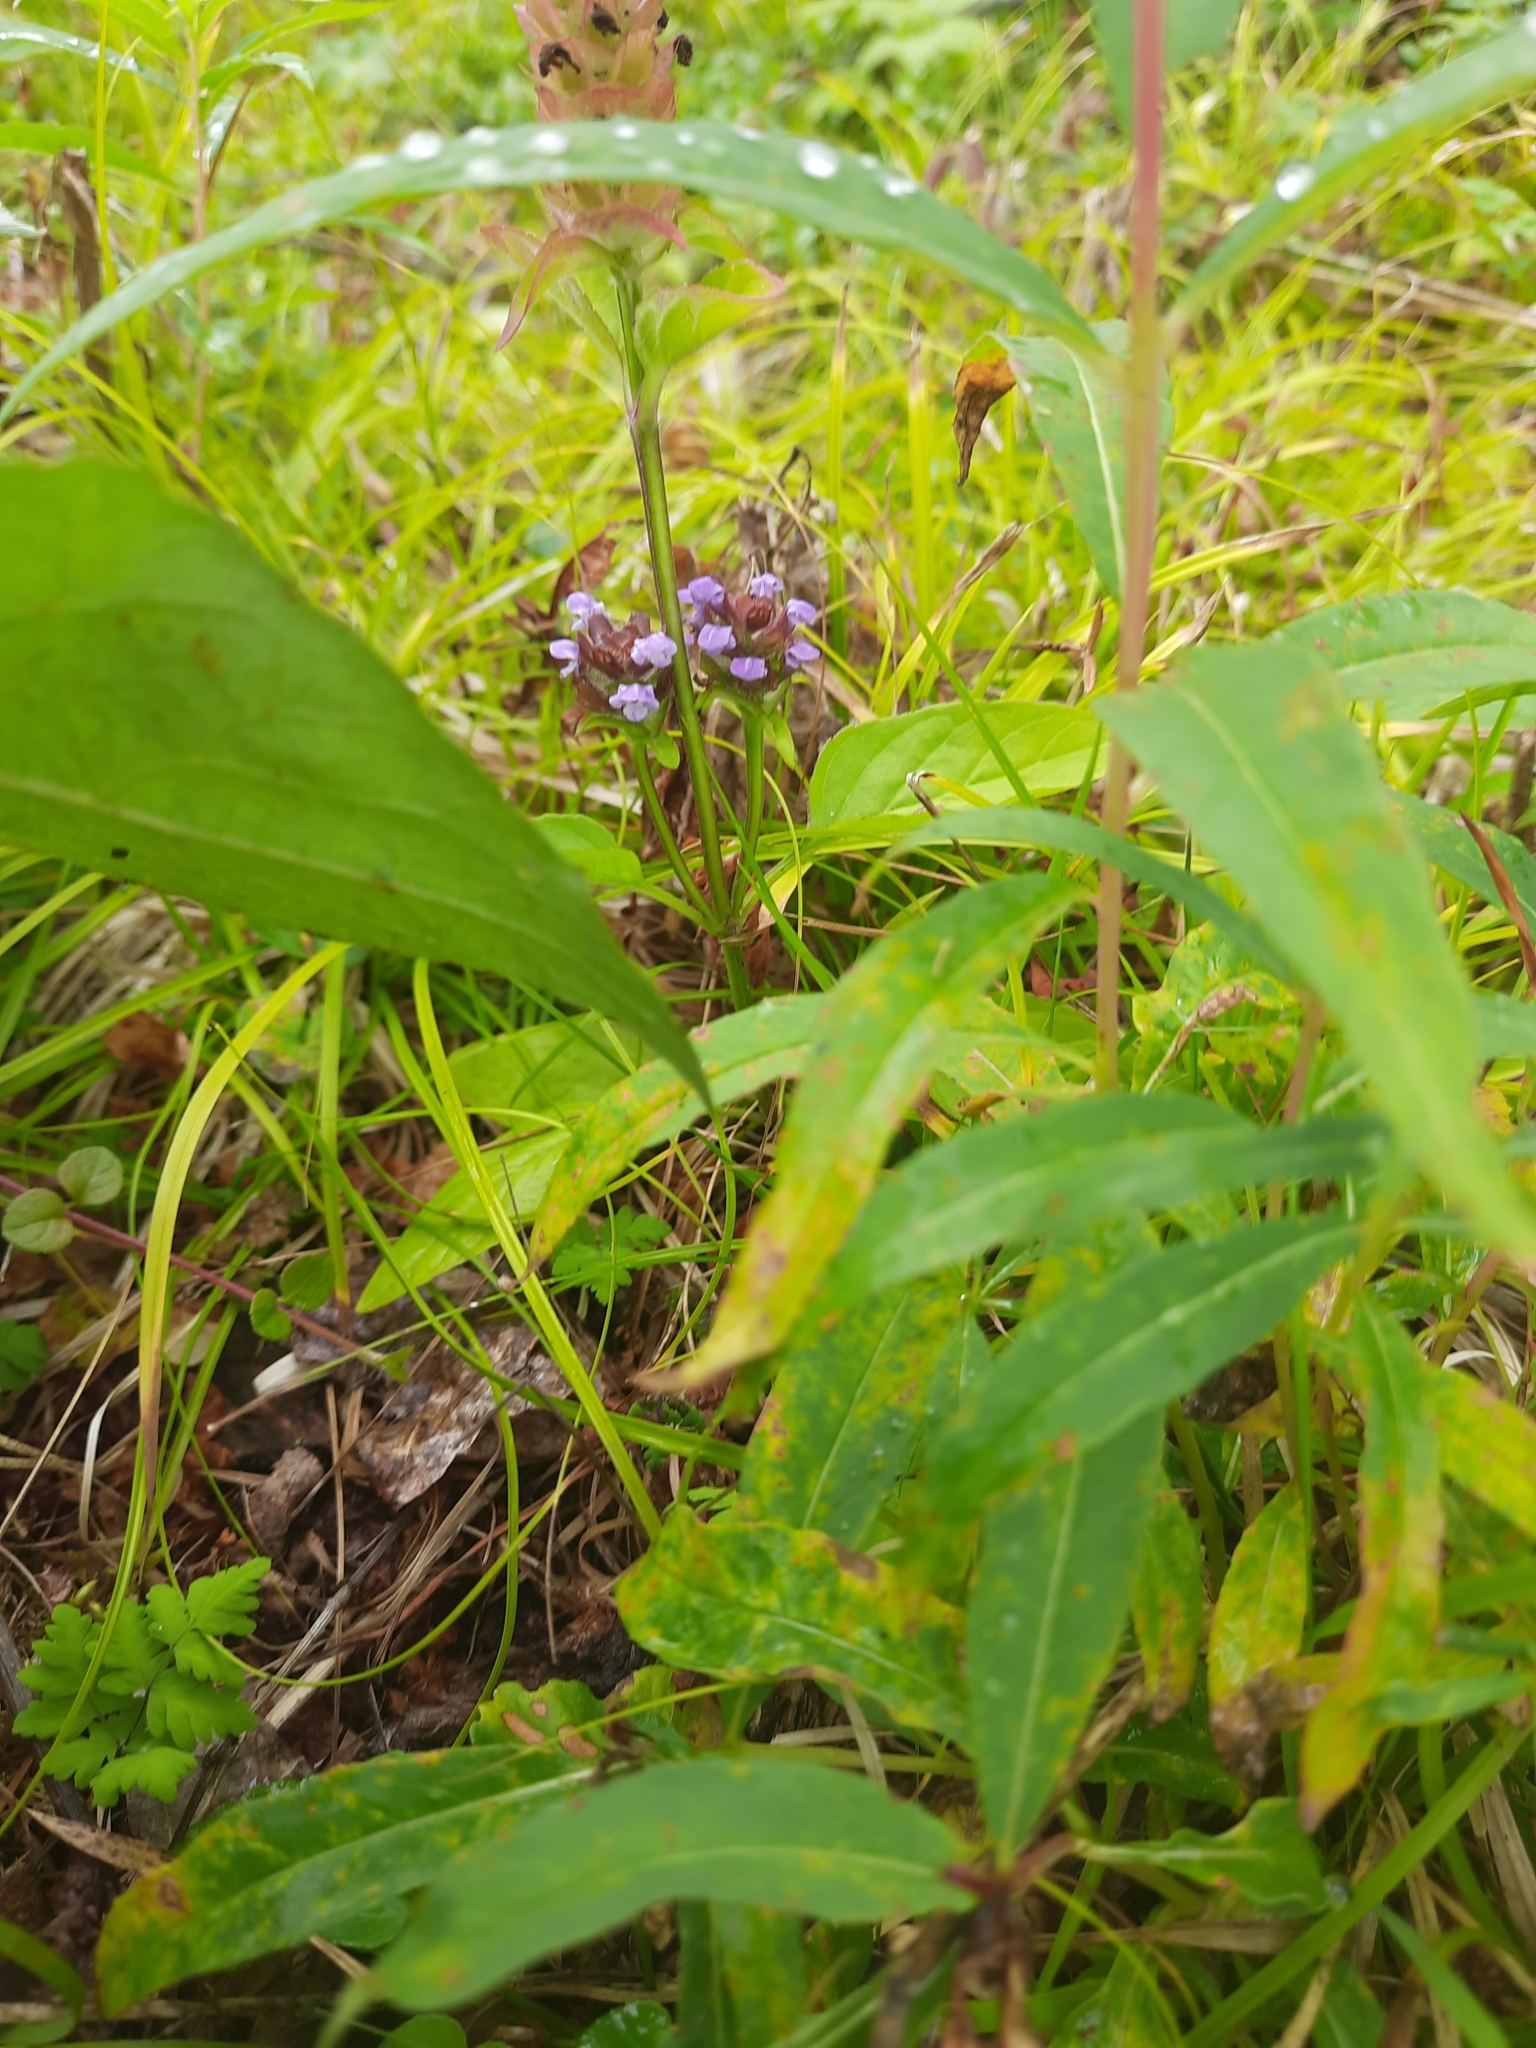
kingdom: Plantae
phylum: Tracheophyta
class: Magnoliopsida
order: Lamiales
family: Lamiaceae
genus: Prunella
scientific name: Prunella vulgaris
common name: Heal-all
